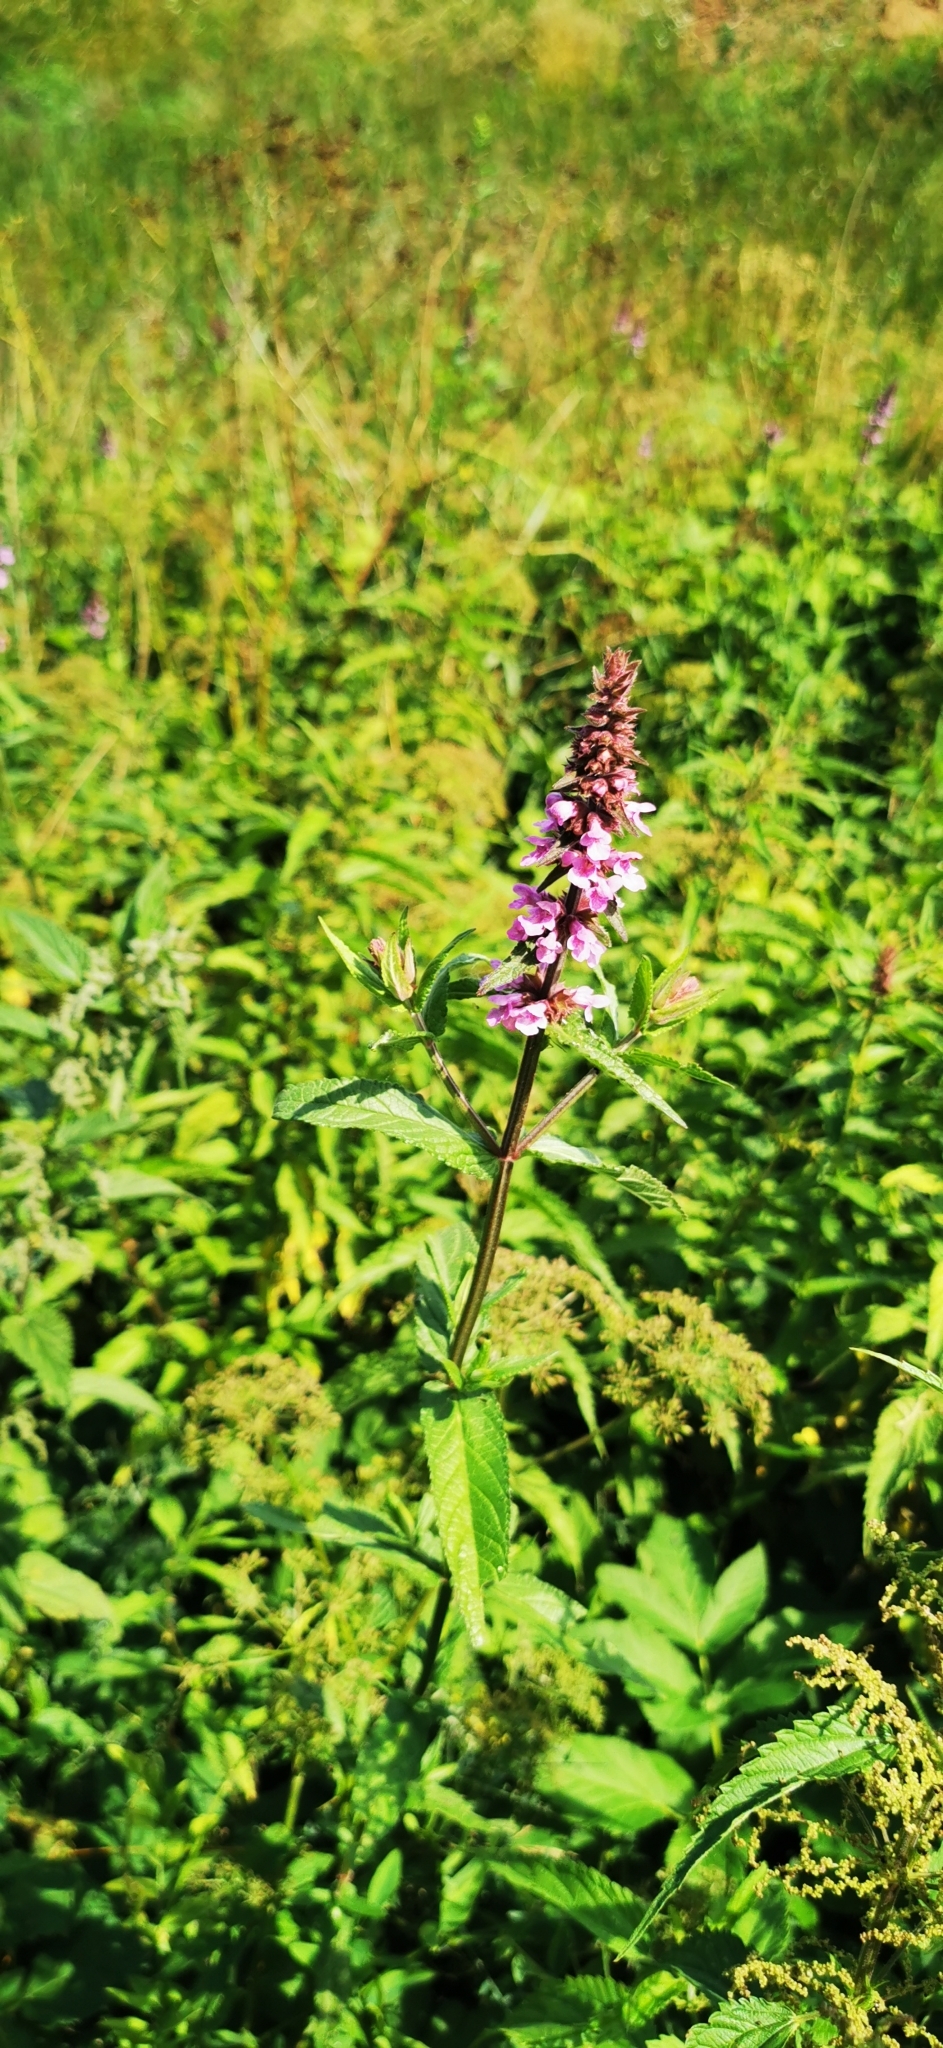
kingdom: Plantae
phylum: Tracheophyta
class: Magnoliopsida
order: Lamiales
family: Lamiaceae
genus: Stachys
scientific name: Stachys palustris
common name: Marsh woundwort
